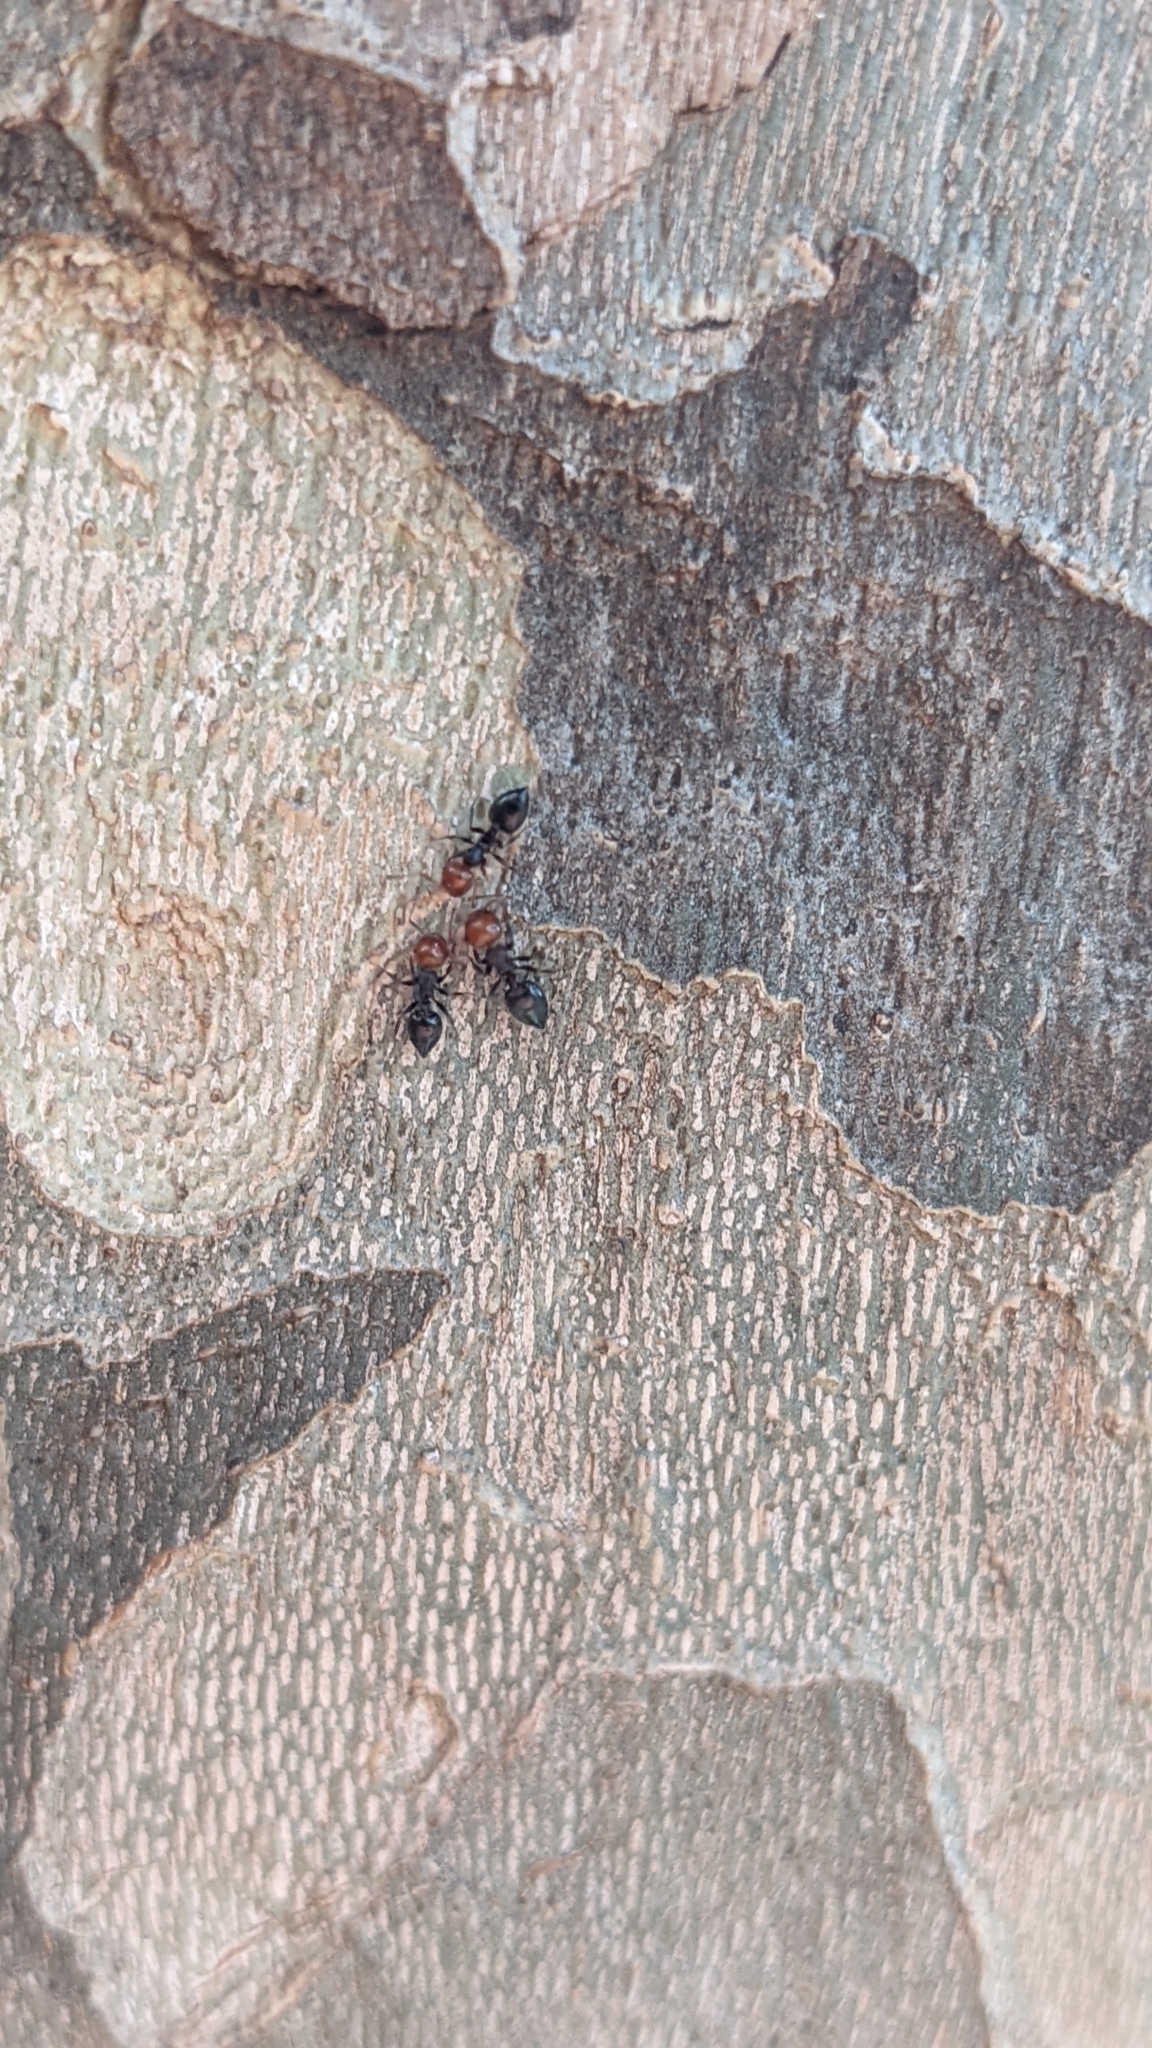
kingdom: Animalia
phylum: Arthropoda
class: Insecta
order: Hymenoptera
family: Formicidae
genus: Crematogaster
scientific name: Crematogaster scutellaris
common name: Fourmi du liège
